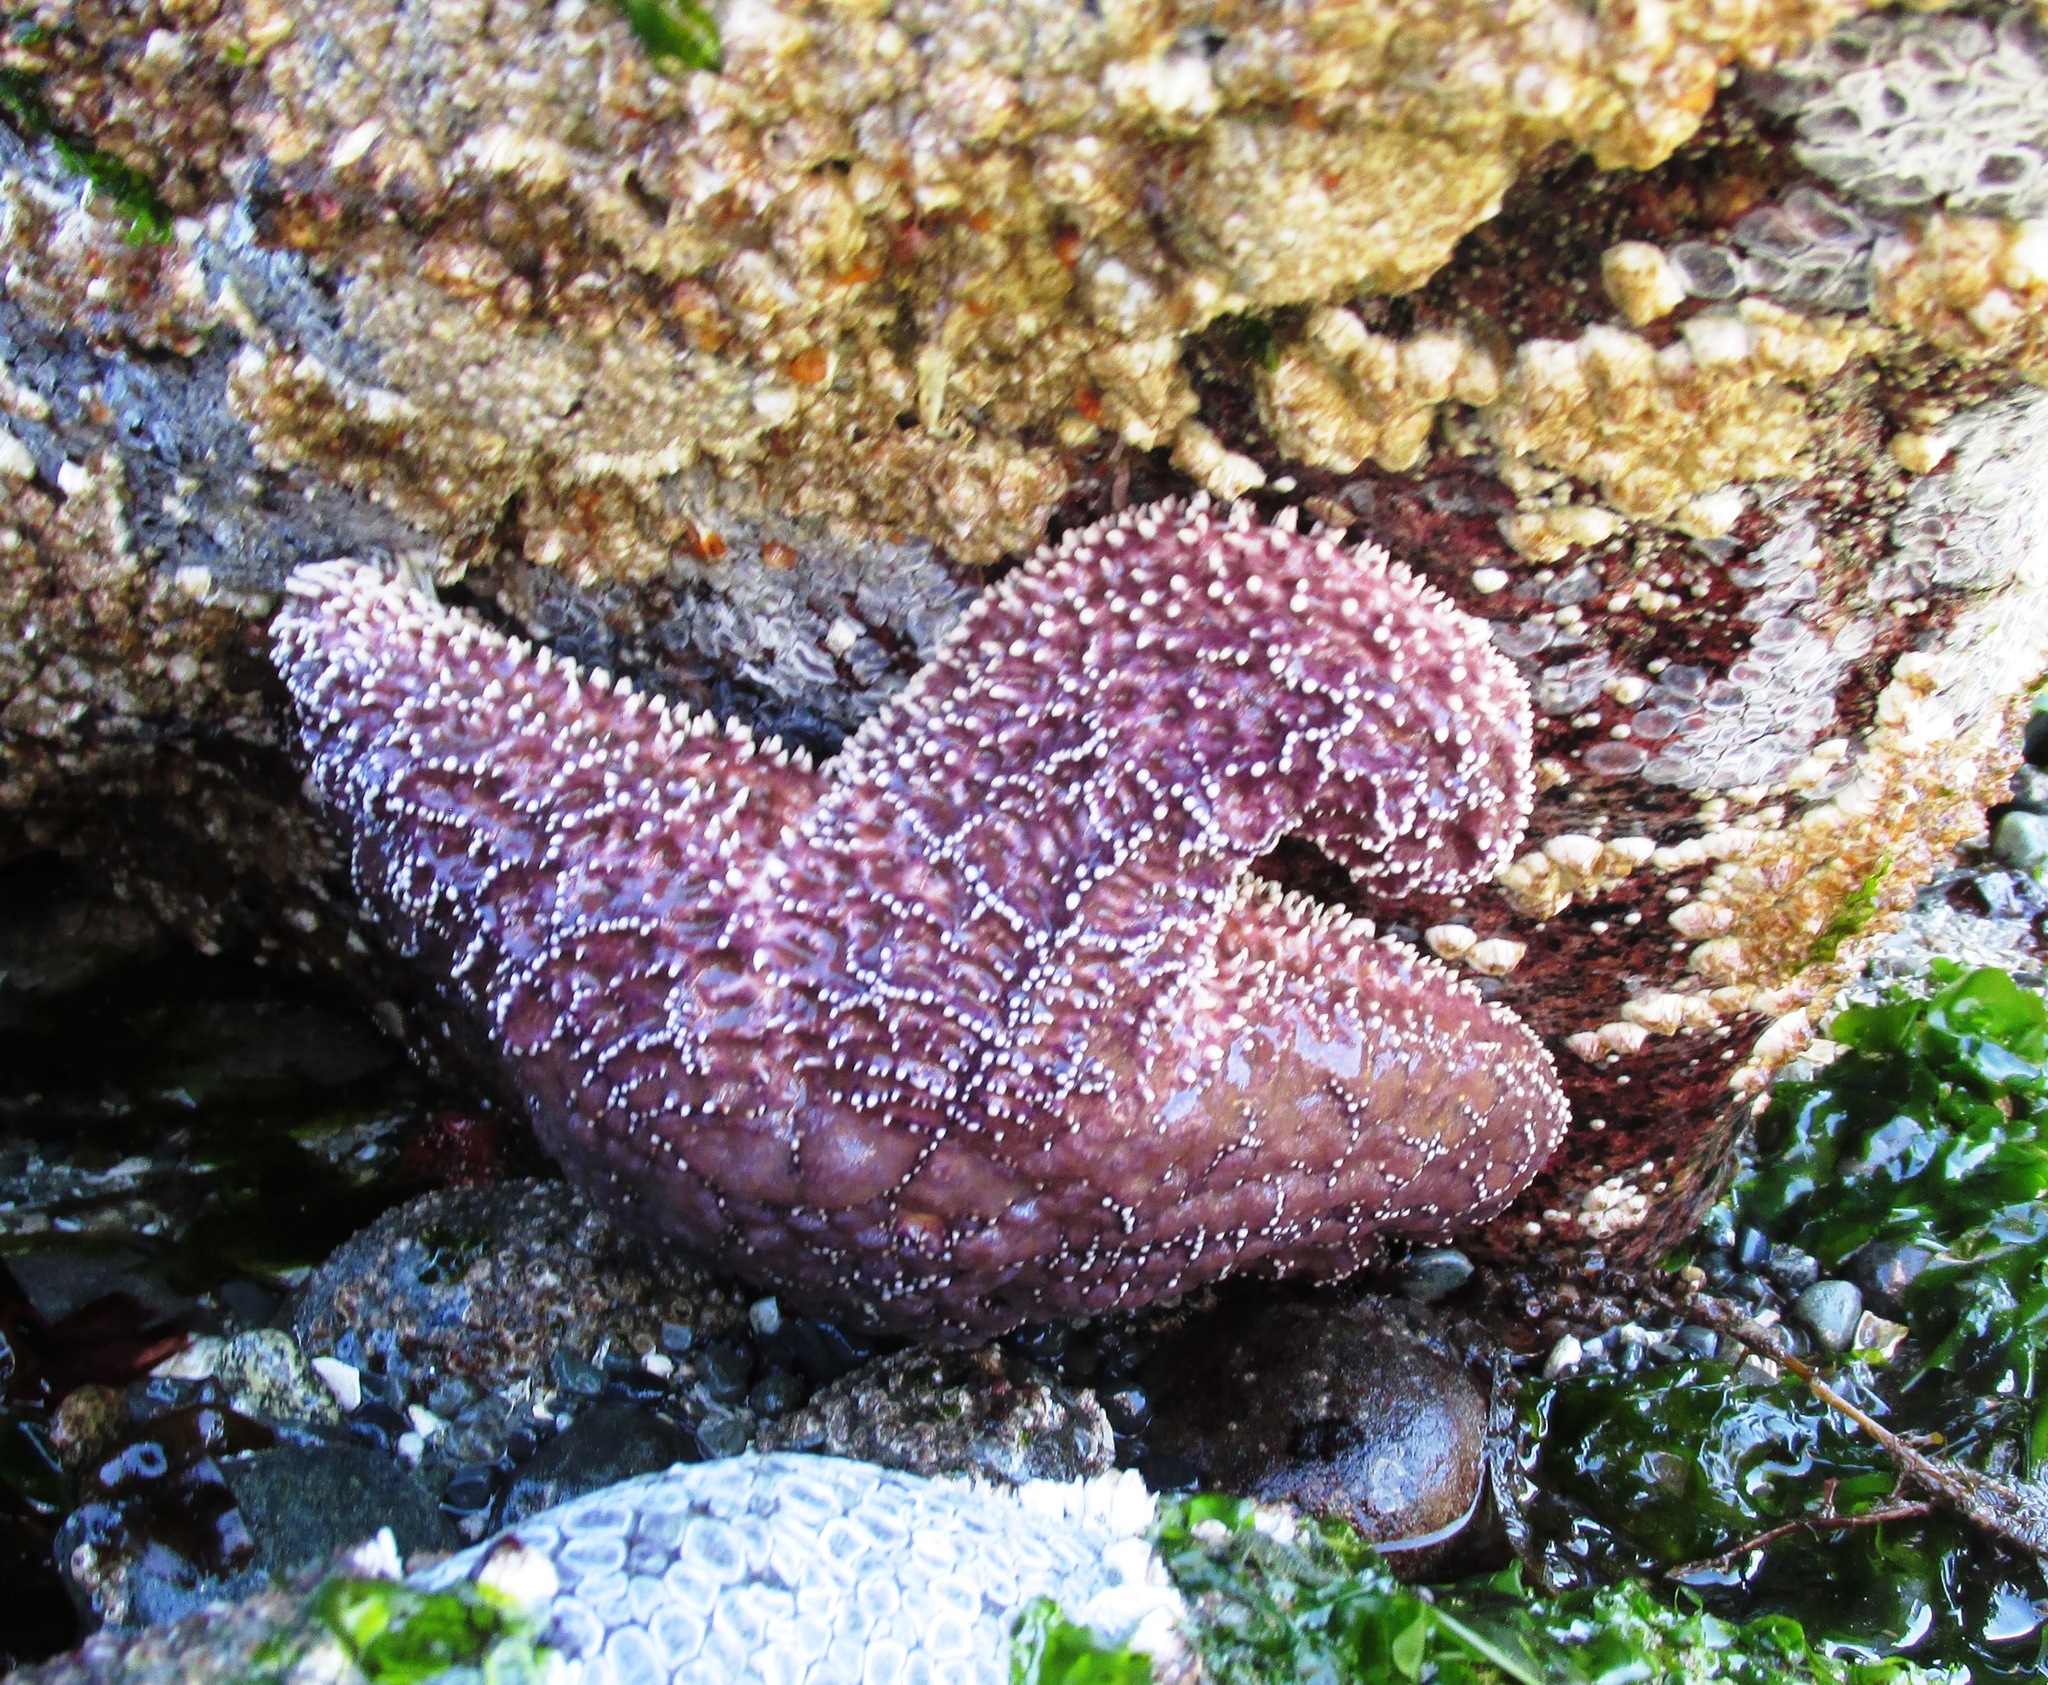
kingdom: Animalia
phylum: Echinodermata
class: Asteroidea
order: Forcipulatida
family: Asteriidae
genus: Pisaster
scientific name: Pisaster ochraceus
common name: Ochre stars
